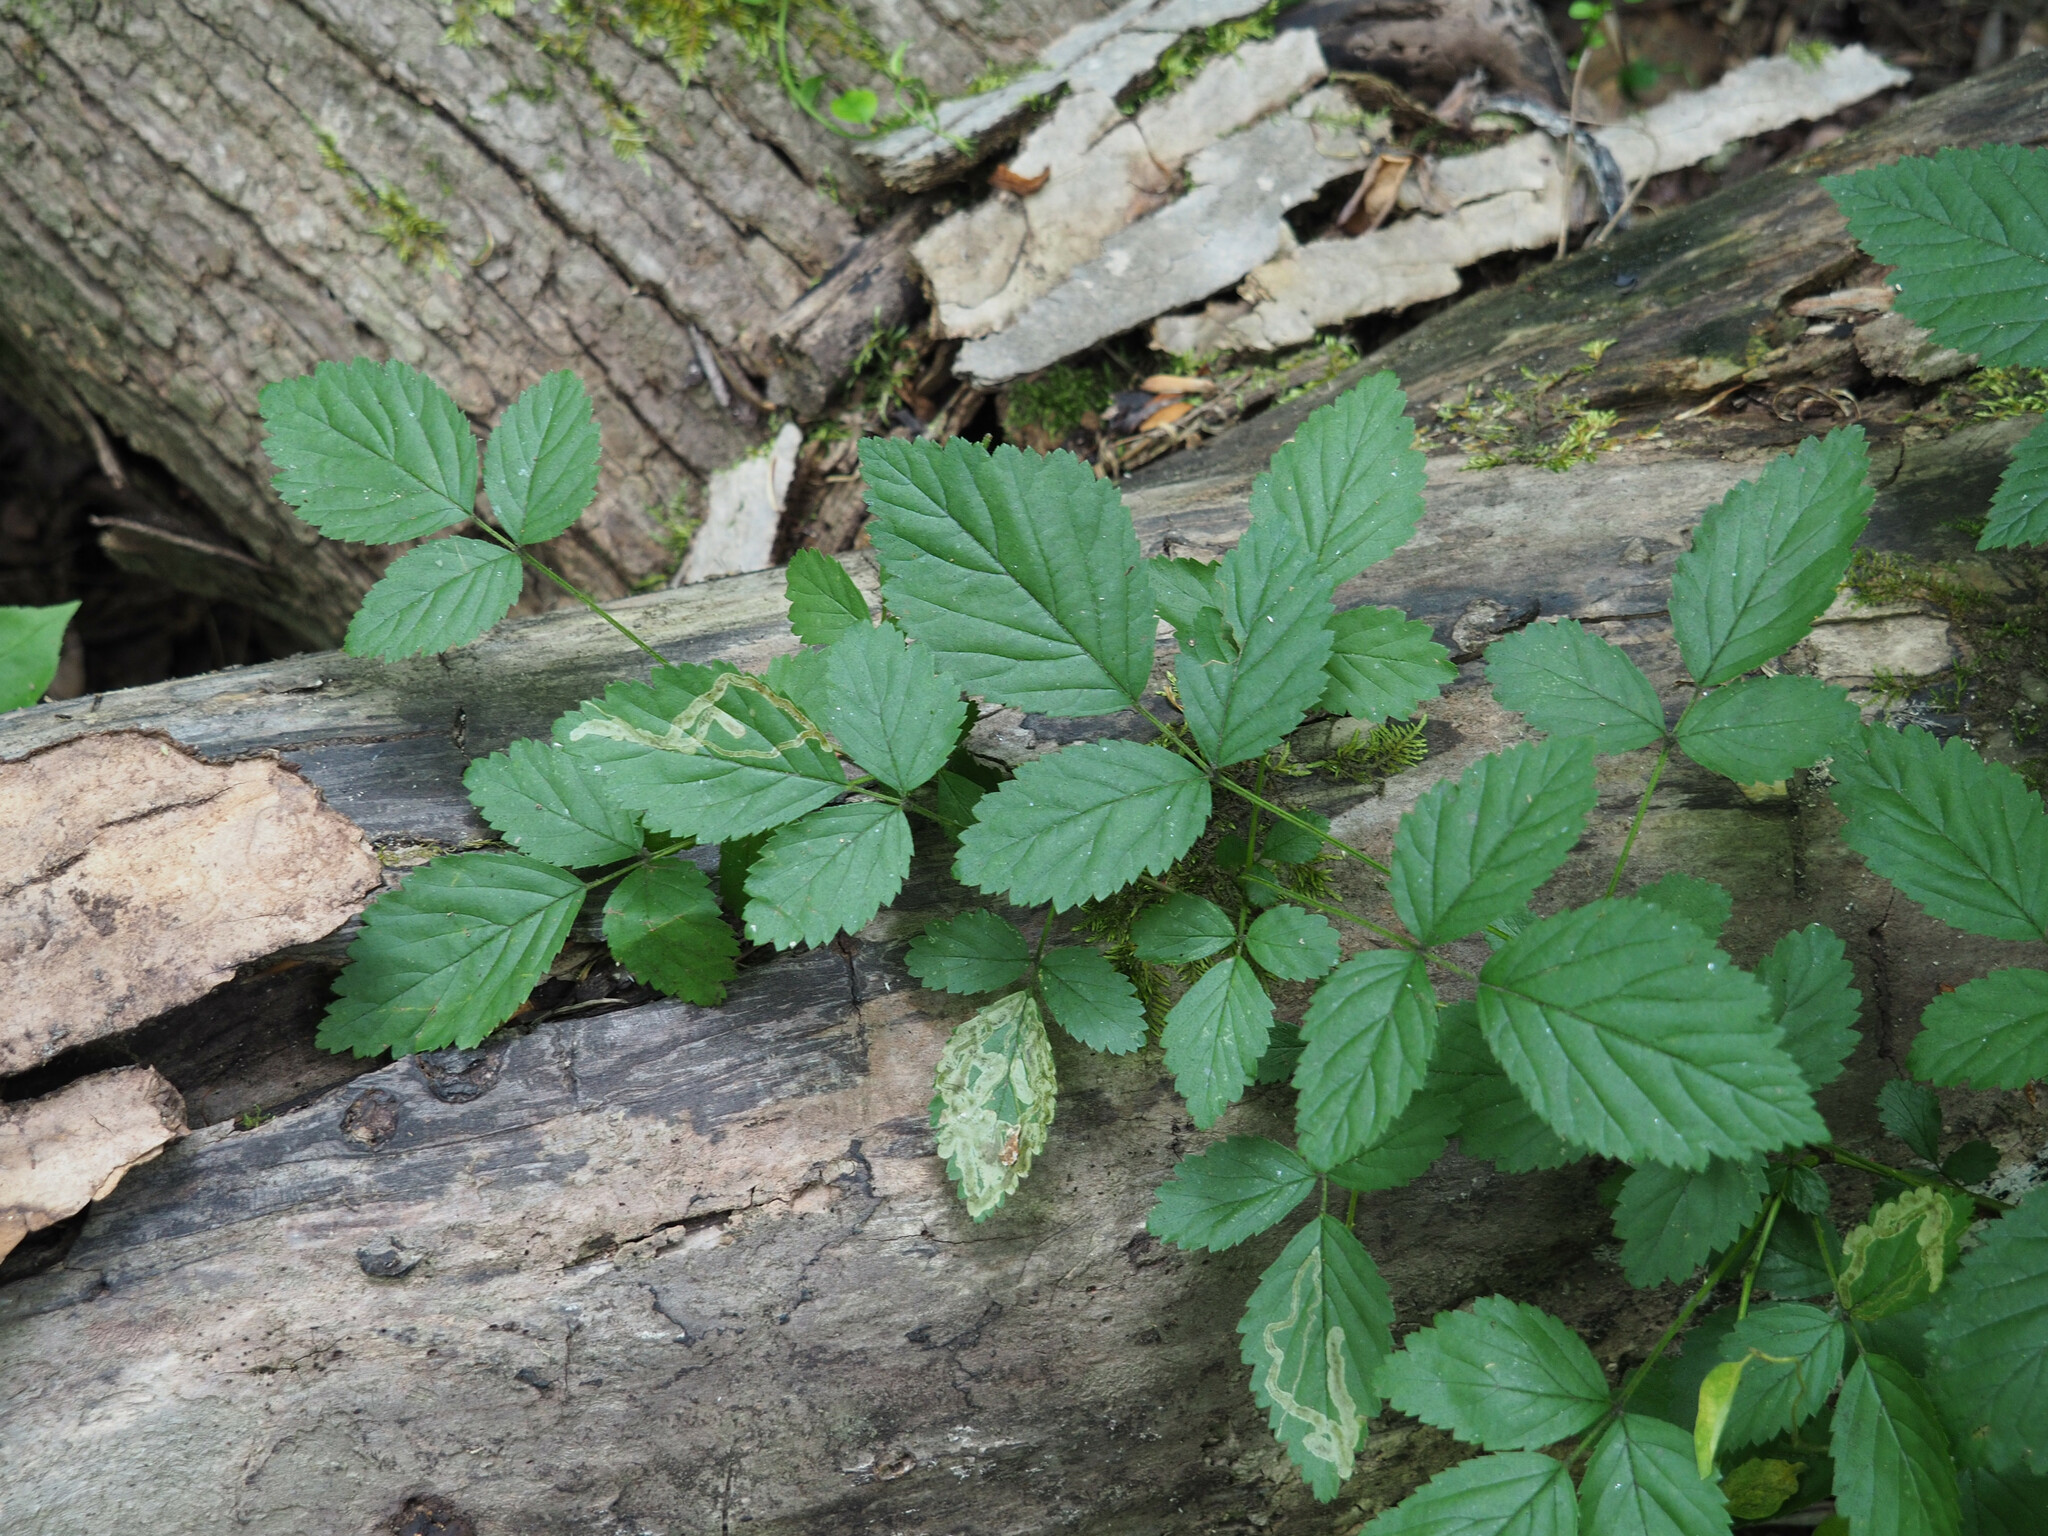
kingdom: Animalia
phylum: Arthropoda
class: Insecta
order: Diptera
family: Agromyzidae
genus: Agromyza
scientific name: Agromyza vockerothi
